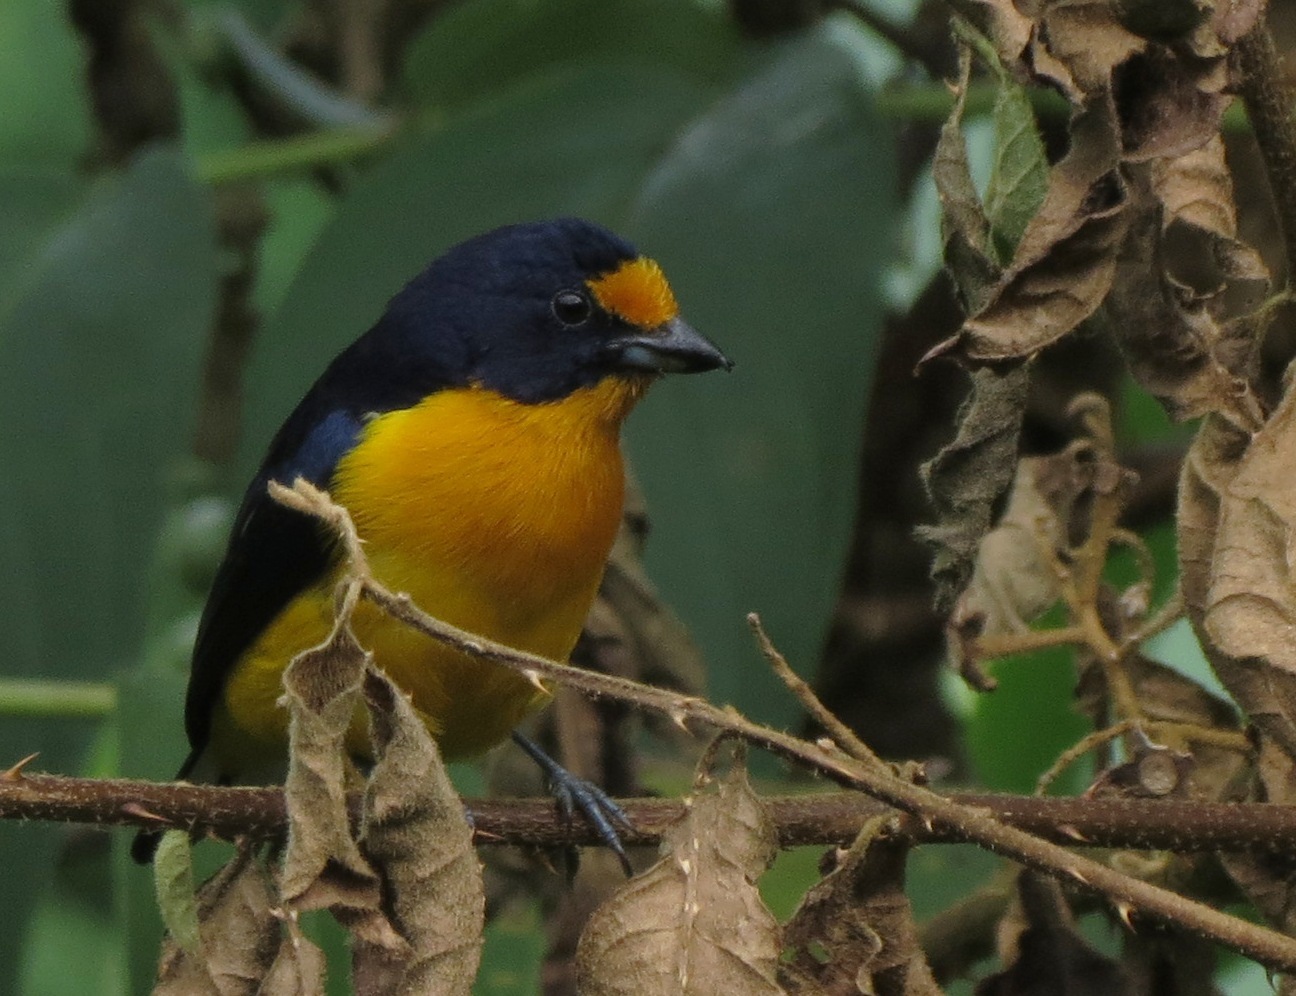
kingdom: Animalia
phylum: Chordata
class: Aves
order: Passeriformes
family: Fringillidae
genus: Euphonia
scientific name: Euphonia violacea
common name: Violaceous euphonia
